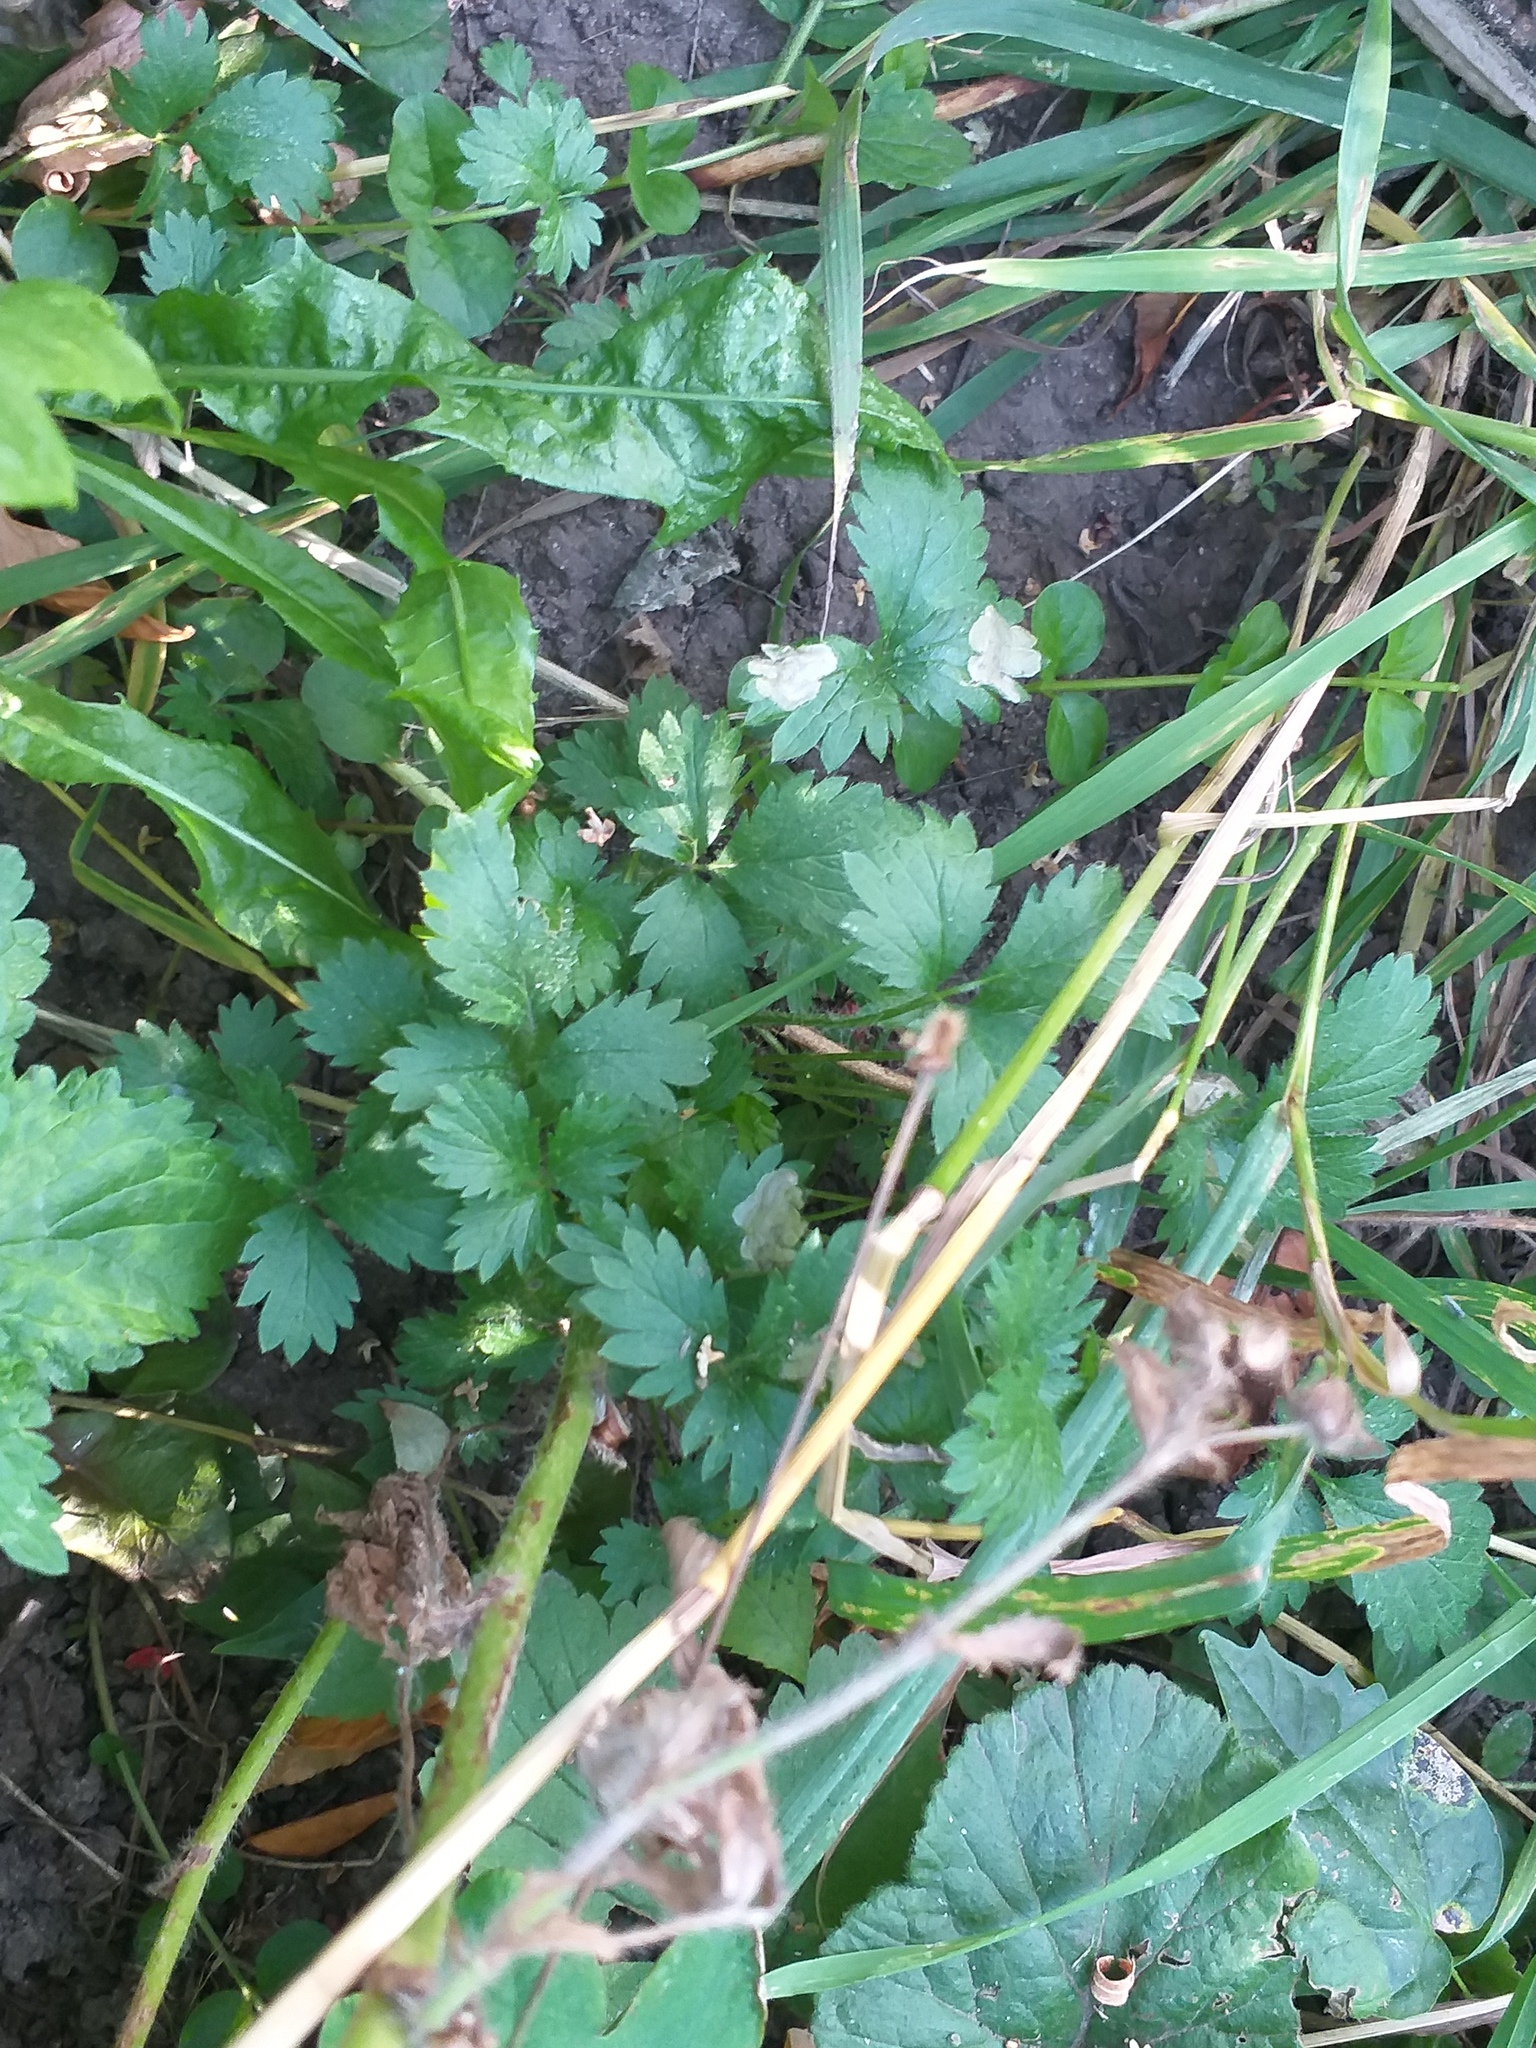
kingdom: Plantae
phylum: Tracheophyta
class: Magnoliopsida
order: Rosales
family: Rosaceae
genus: Potentilla
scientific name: Potentilla norvegica
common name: Ternate-leaved cinquefoil
